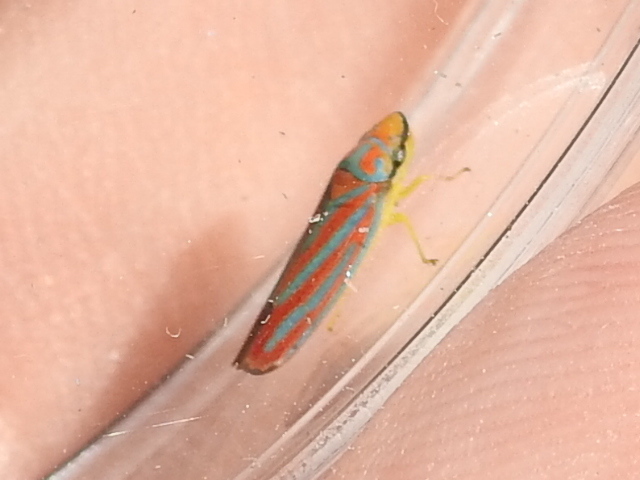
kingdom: Animalia
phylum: Arthropoda
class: Insecta
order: Hemiptera
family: Cicadellidae
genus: Graphocephala
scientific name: Graphocephala coccinea
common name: Candy-striped leafhopper
